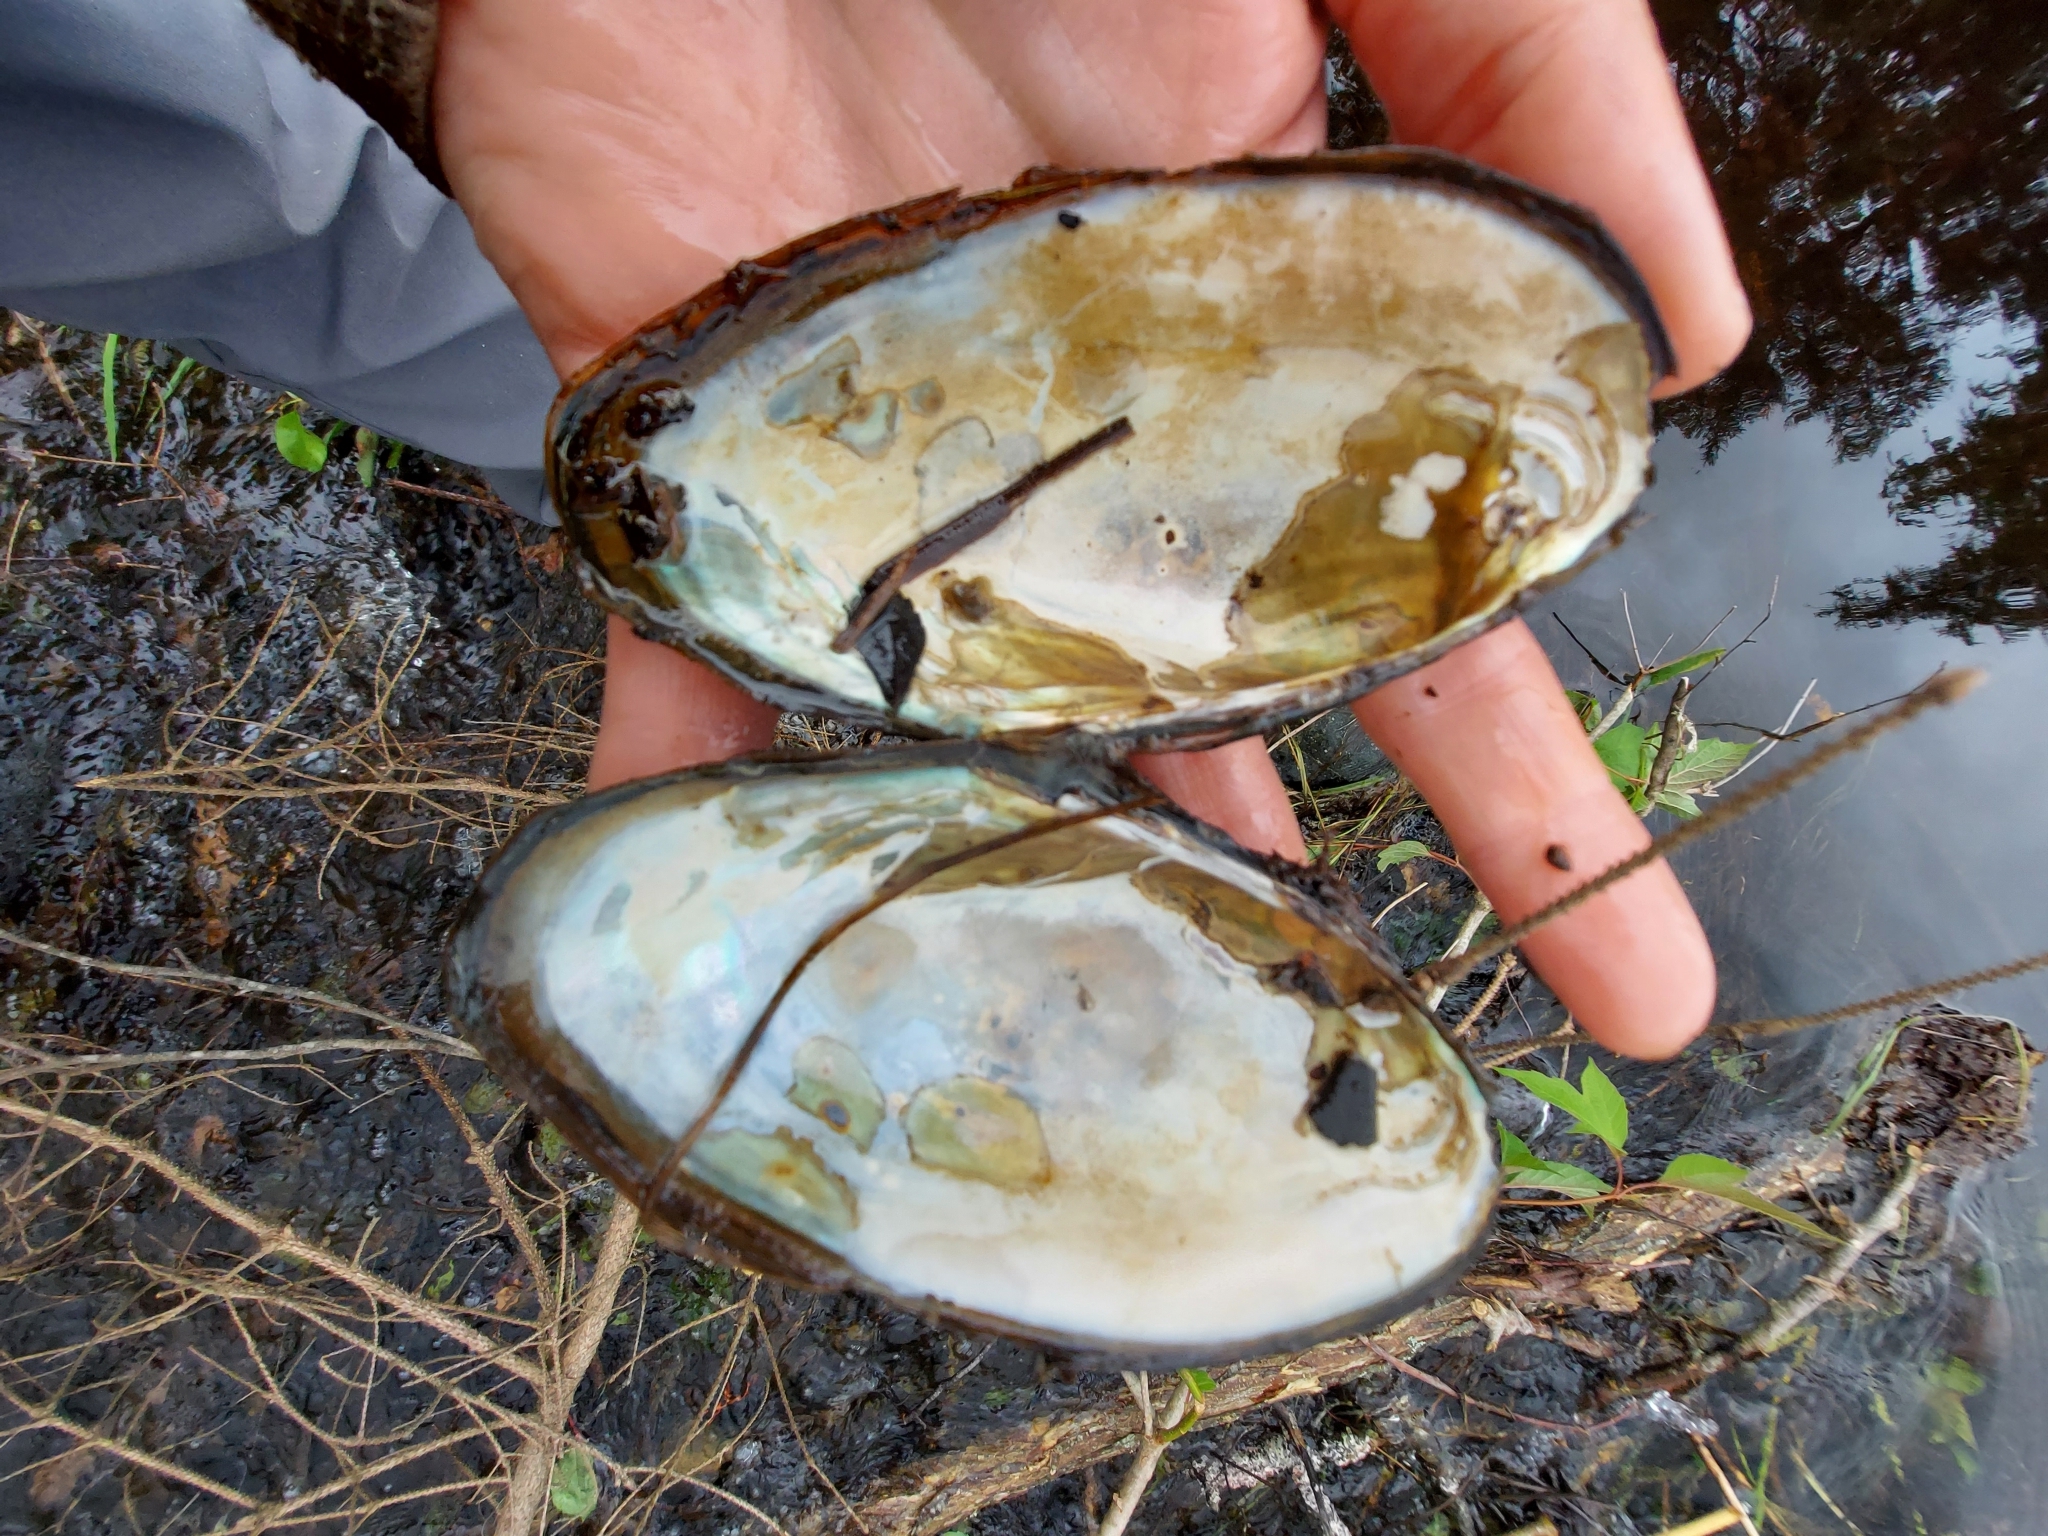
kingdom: Animalia
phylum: Mollusca
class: Bivalvia
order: Unionida
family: Unionidae
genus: Utterbackiana
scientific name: Utterbackiana implicata
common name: Alewife floater
